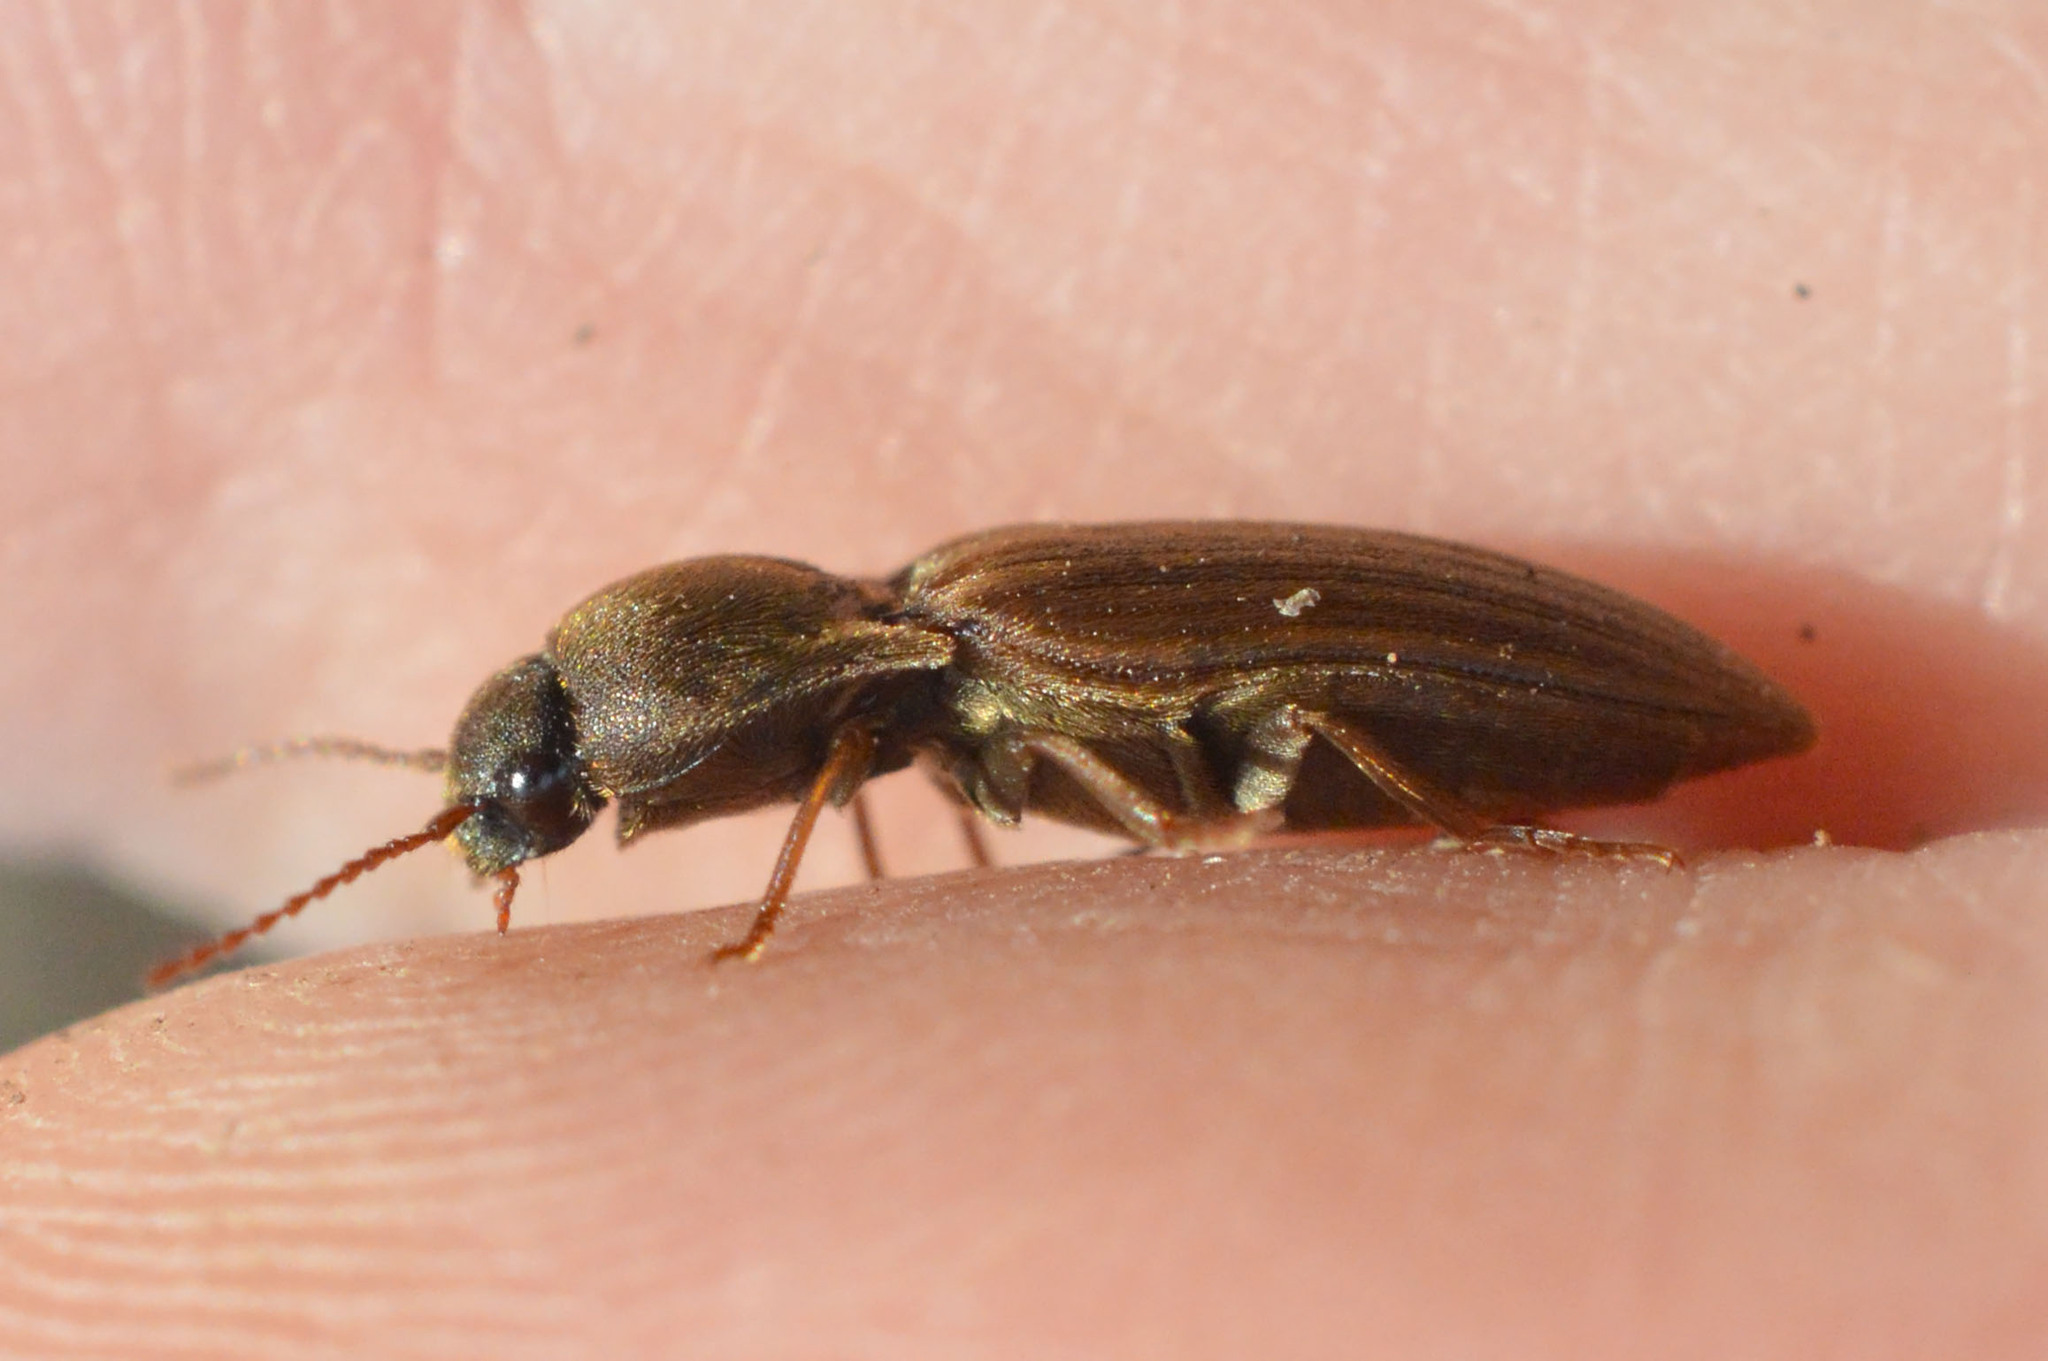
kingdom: Animalia
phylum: Arthropoda
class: Insecta
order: Coleoptera
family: Elateridae
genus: Agriotes
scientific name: Agriotes lineatus
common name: Lined click beetle
